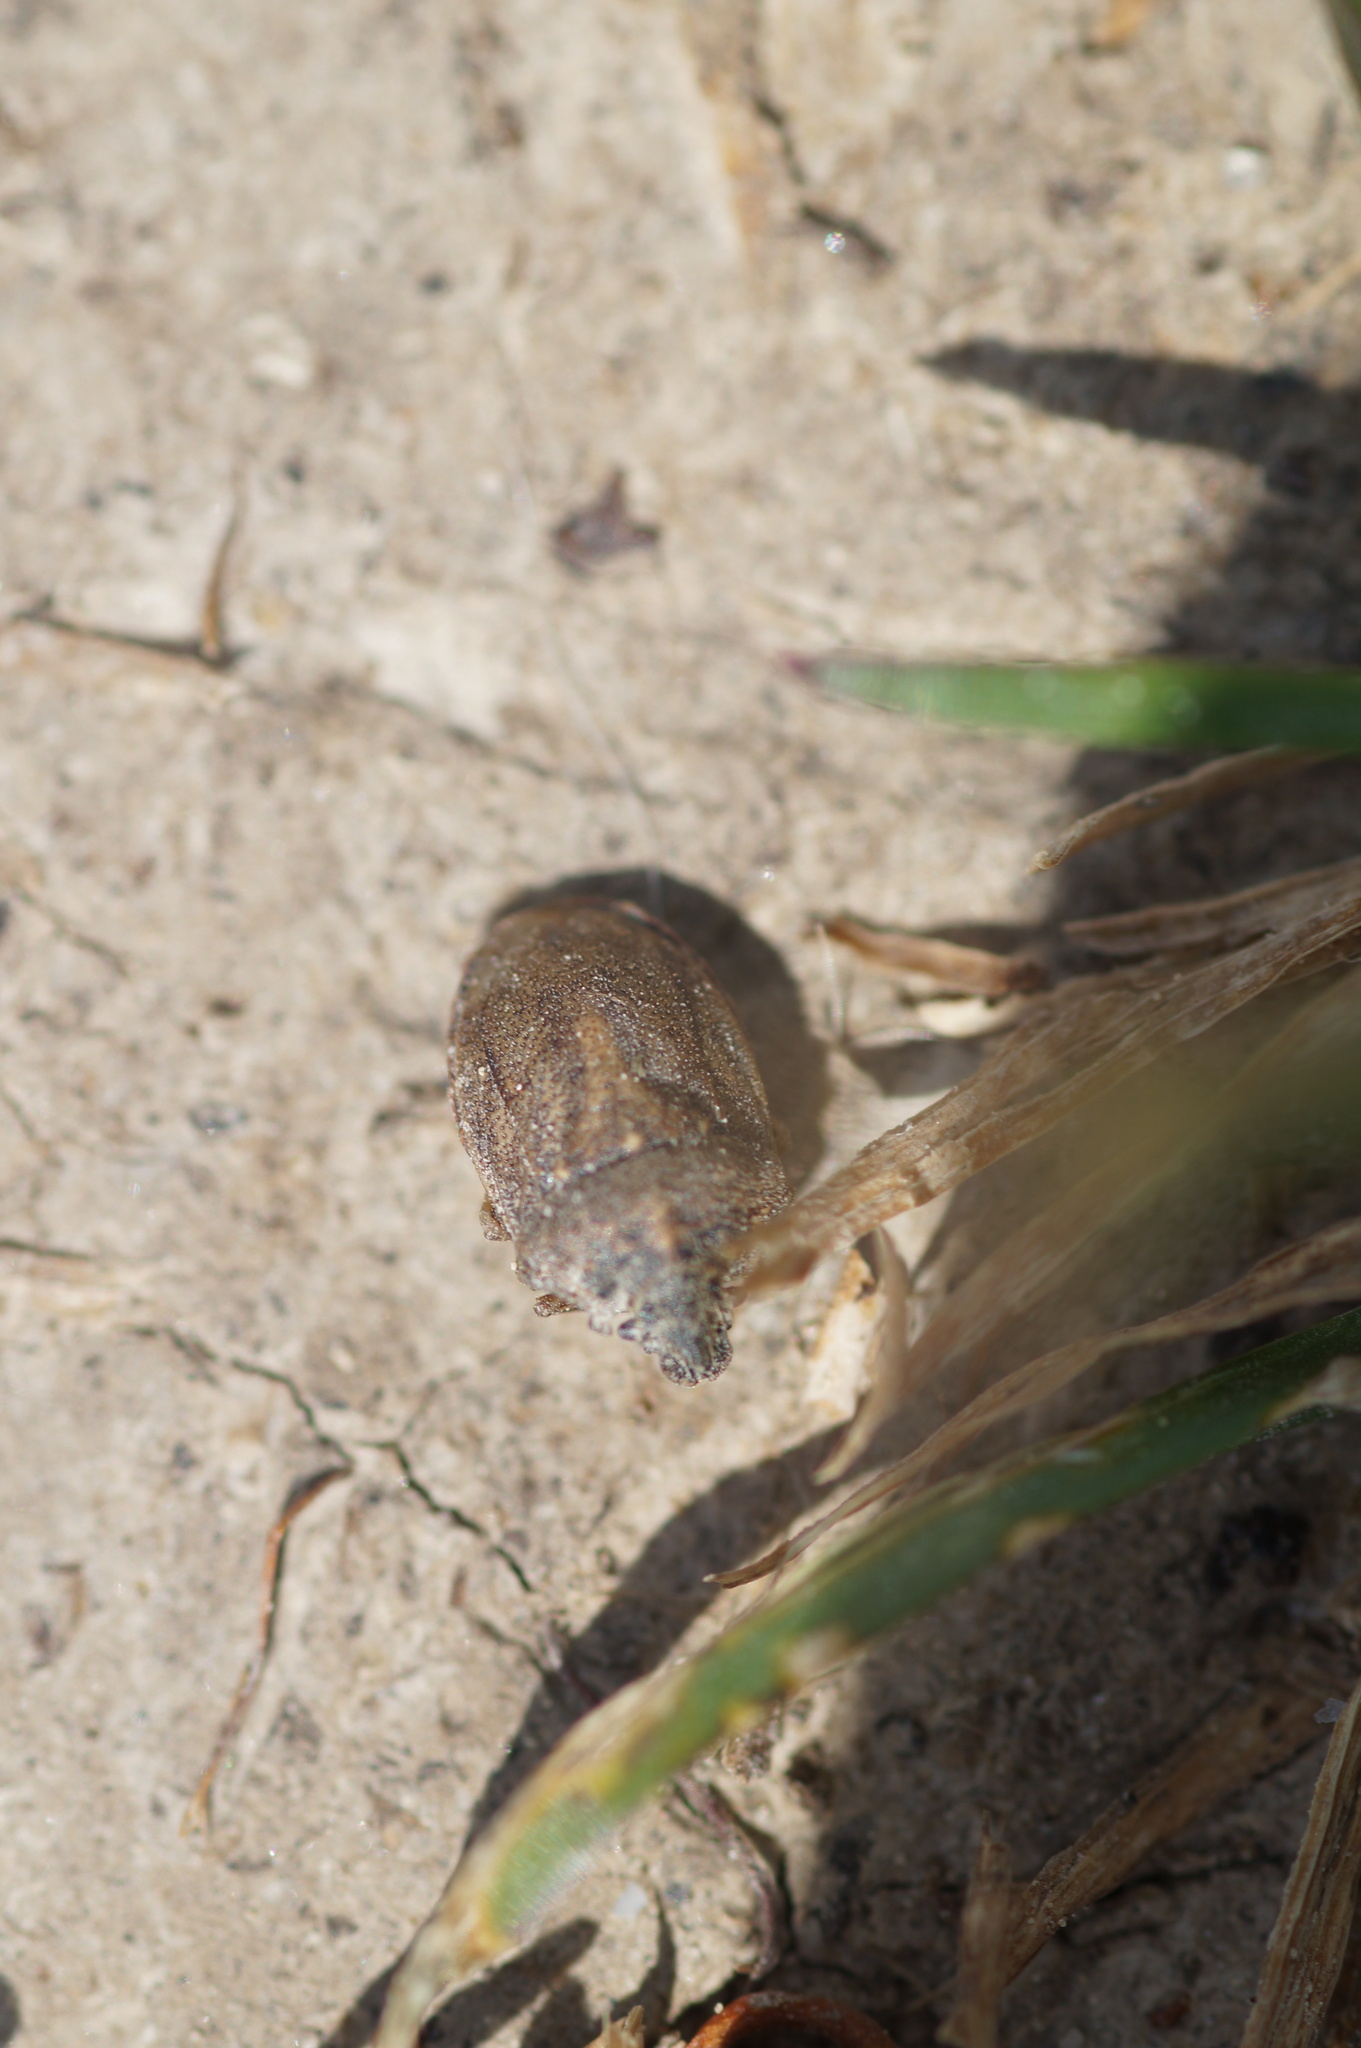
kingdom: Animalia
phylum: Arthropoda
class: Insecta
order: Hemiptera
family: Pentatomidae
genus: Podops
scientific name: Podops inunctus
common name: Turtle bug
